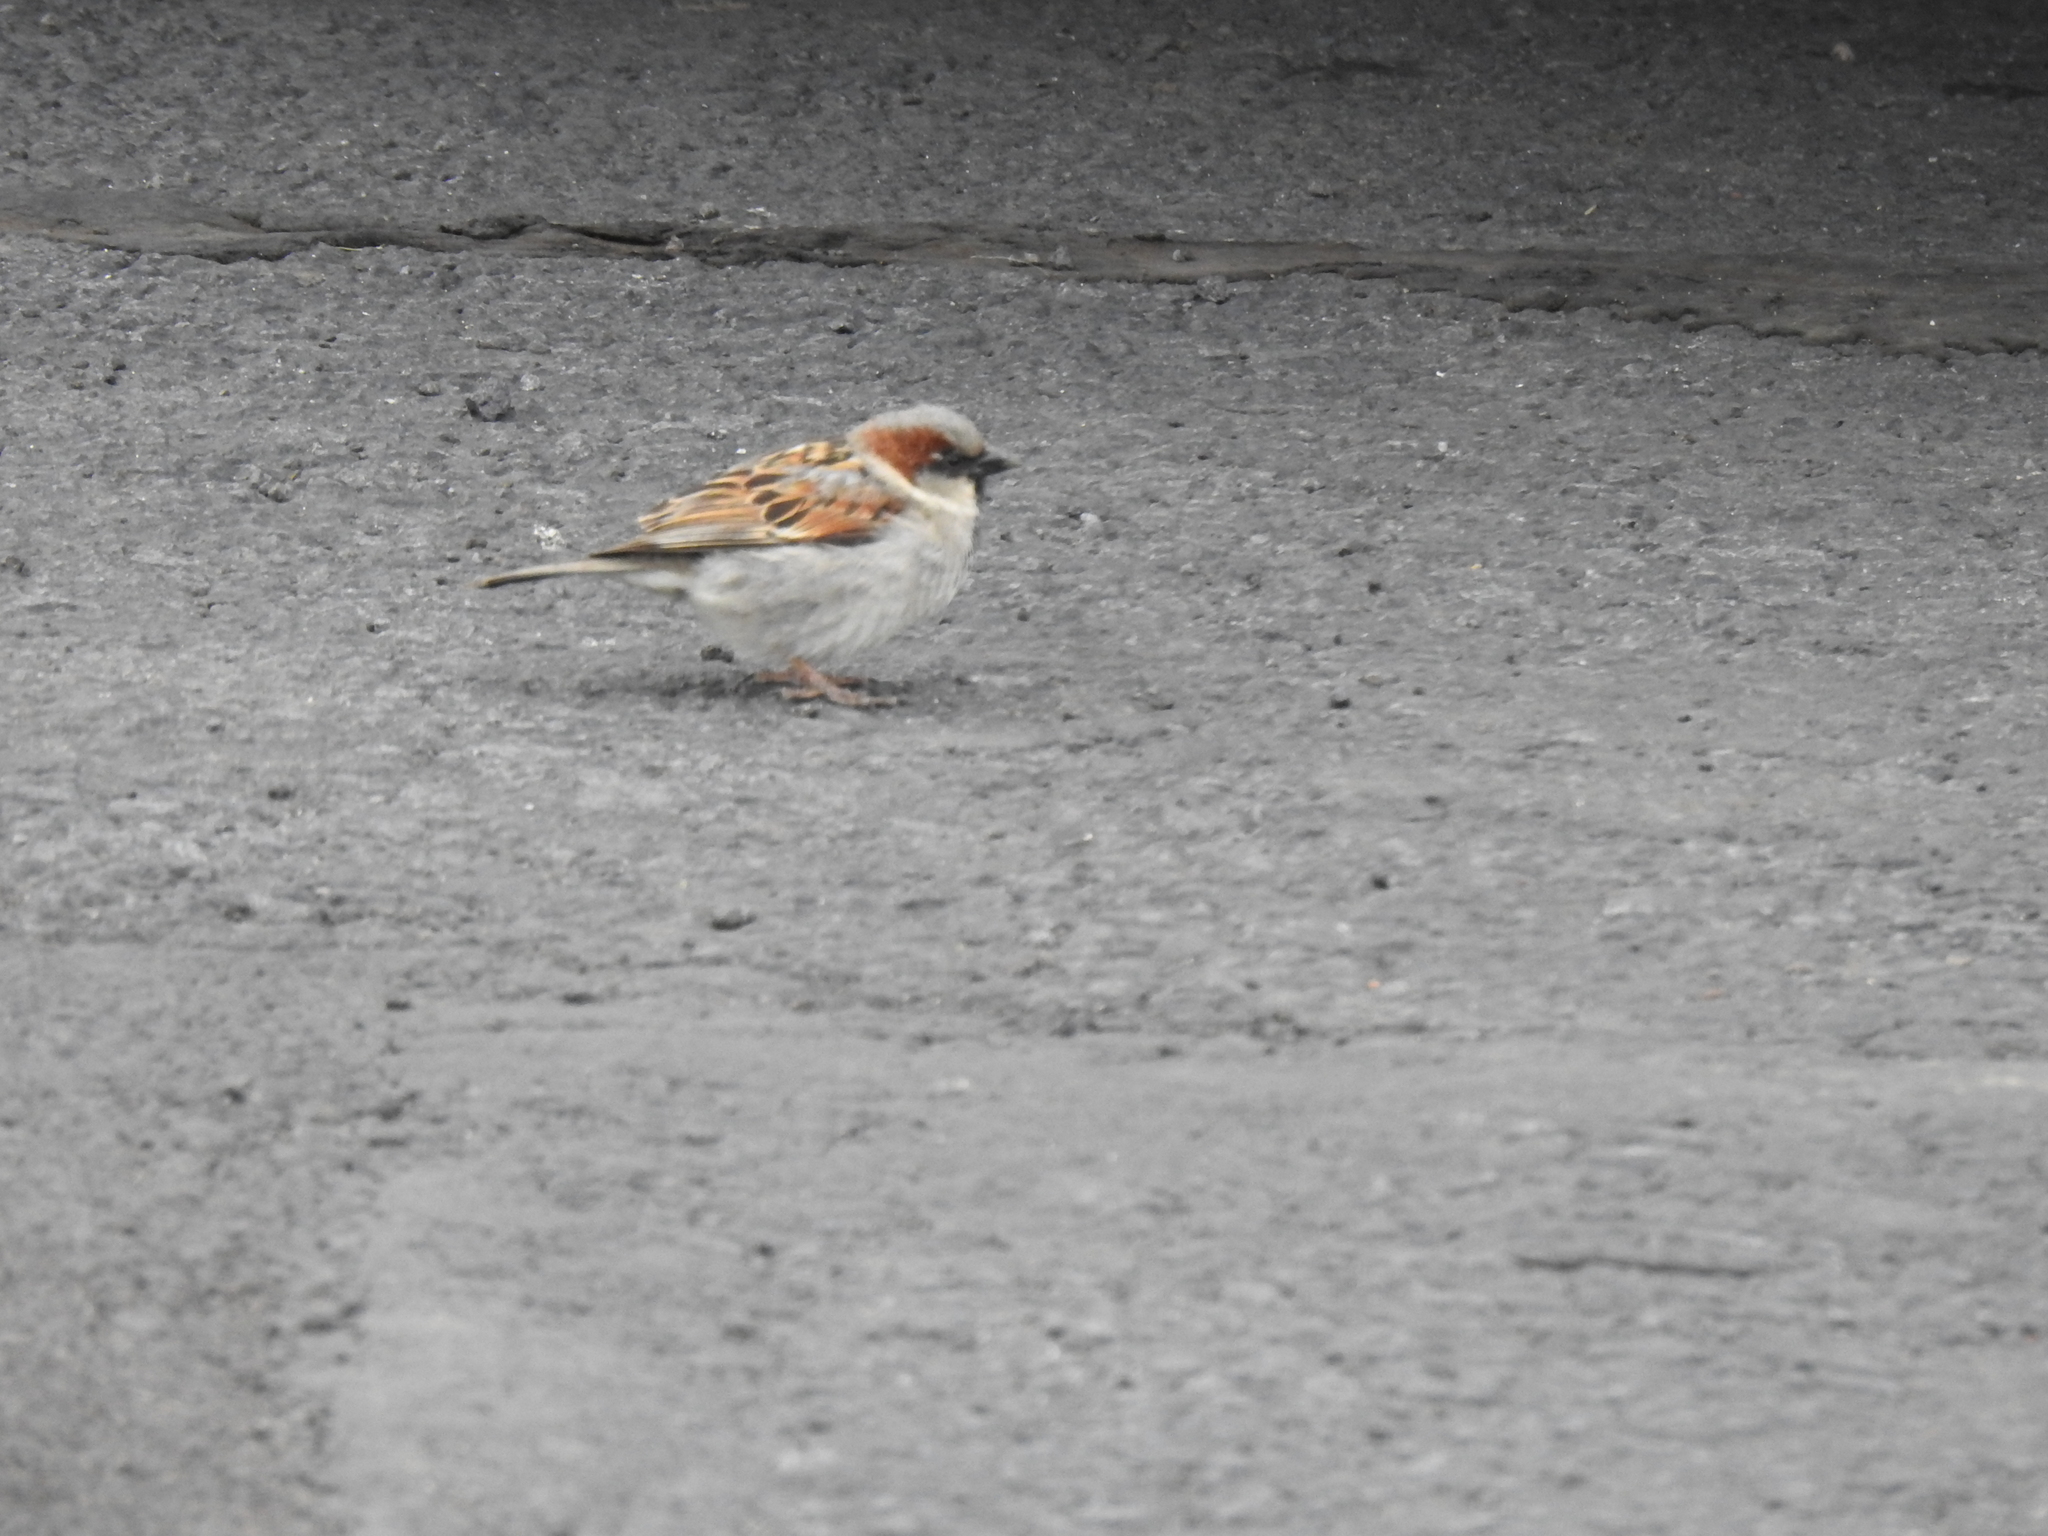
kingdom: Animalia
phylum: Chordata
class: Aves
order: Passeriformes
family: Passeridae
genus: Passer
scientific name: Passer domesticus
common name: House sparrow
